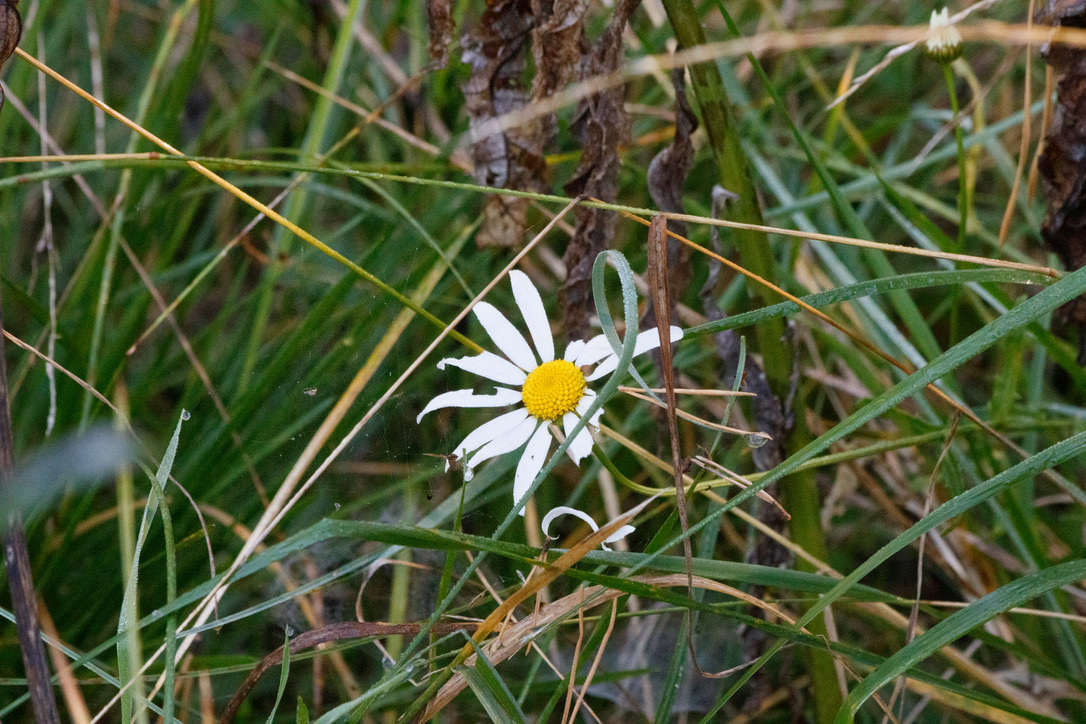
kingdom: Plantae
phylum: Tracheophyta
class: Magnoliopsida
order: Asterales
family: Asteraceae
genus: Leucanthemum
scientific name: Leucanthemum vulgare
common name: Oxeye daisy
